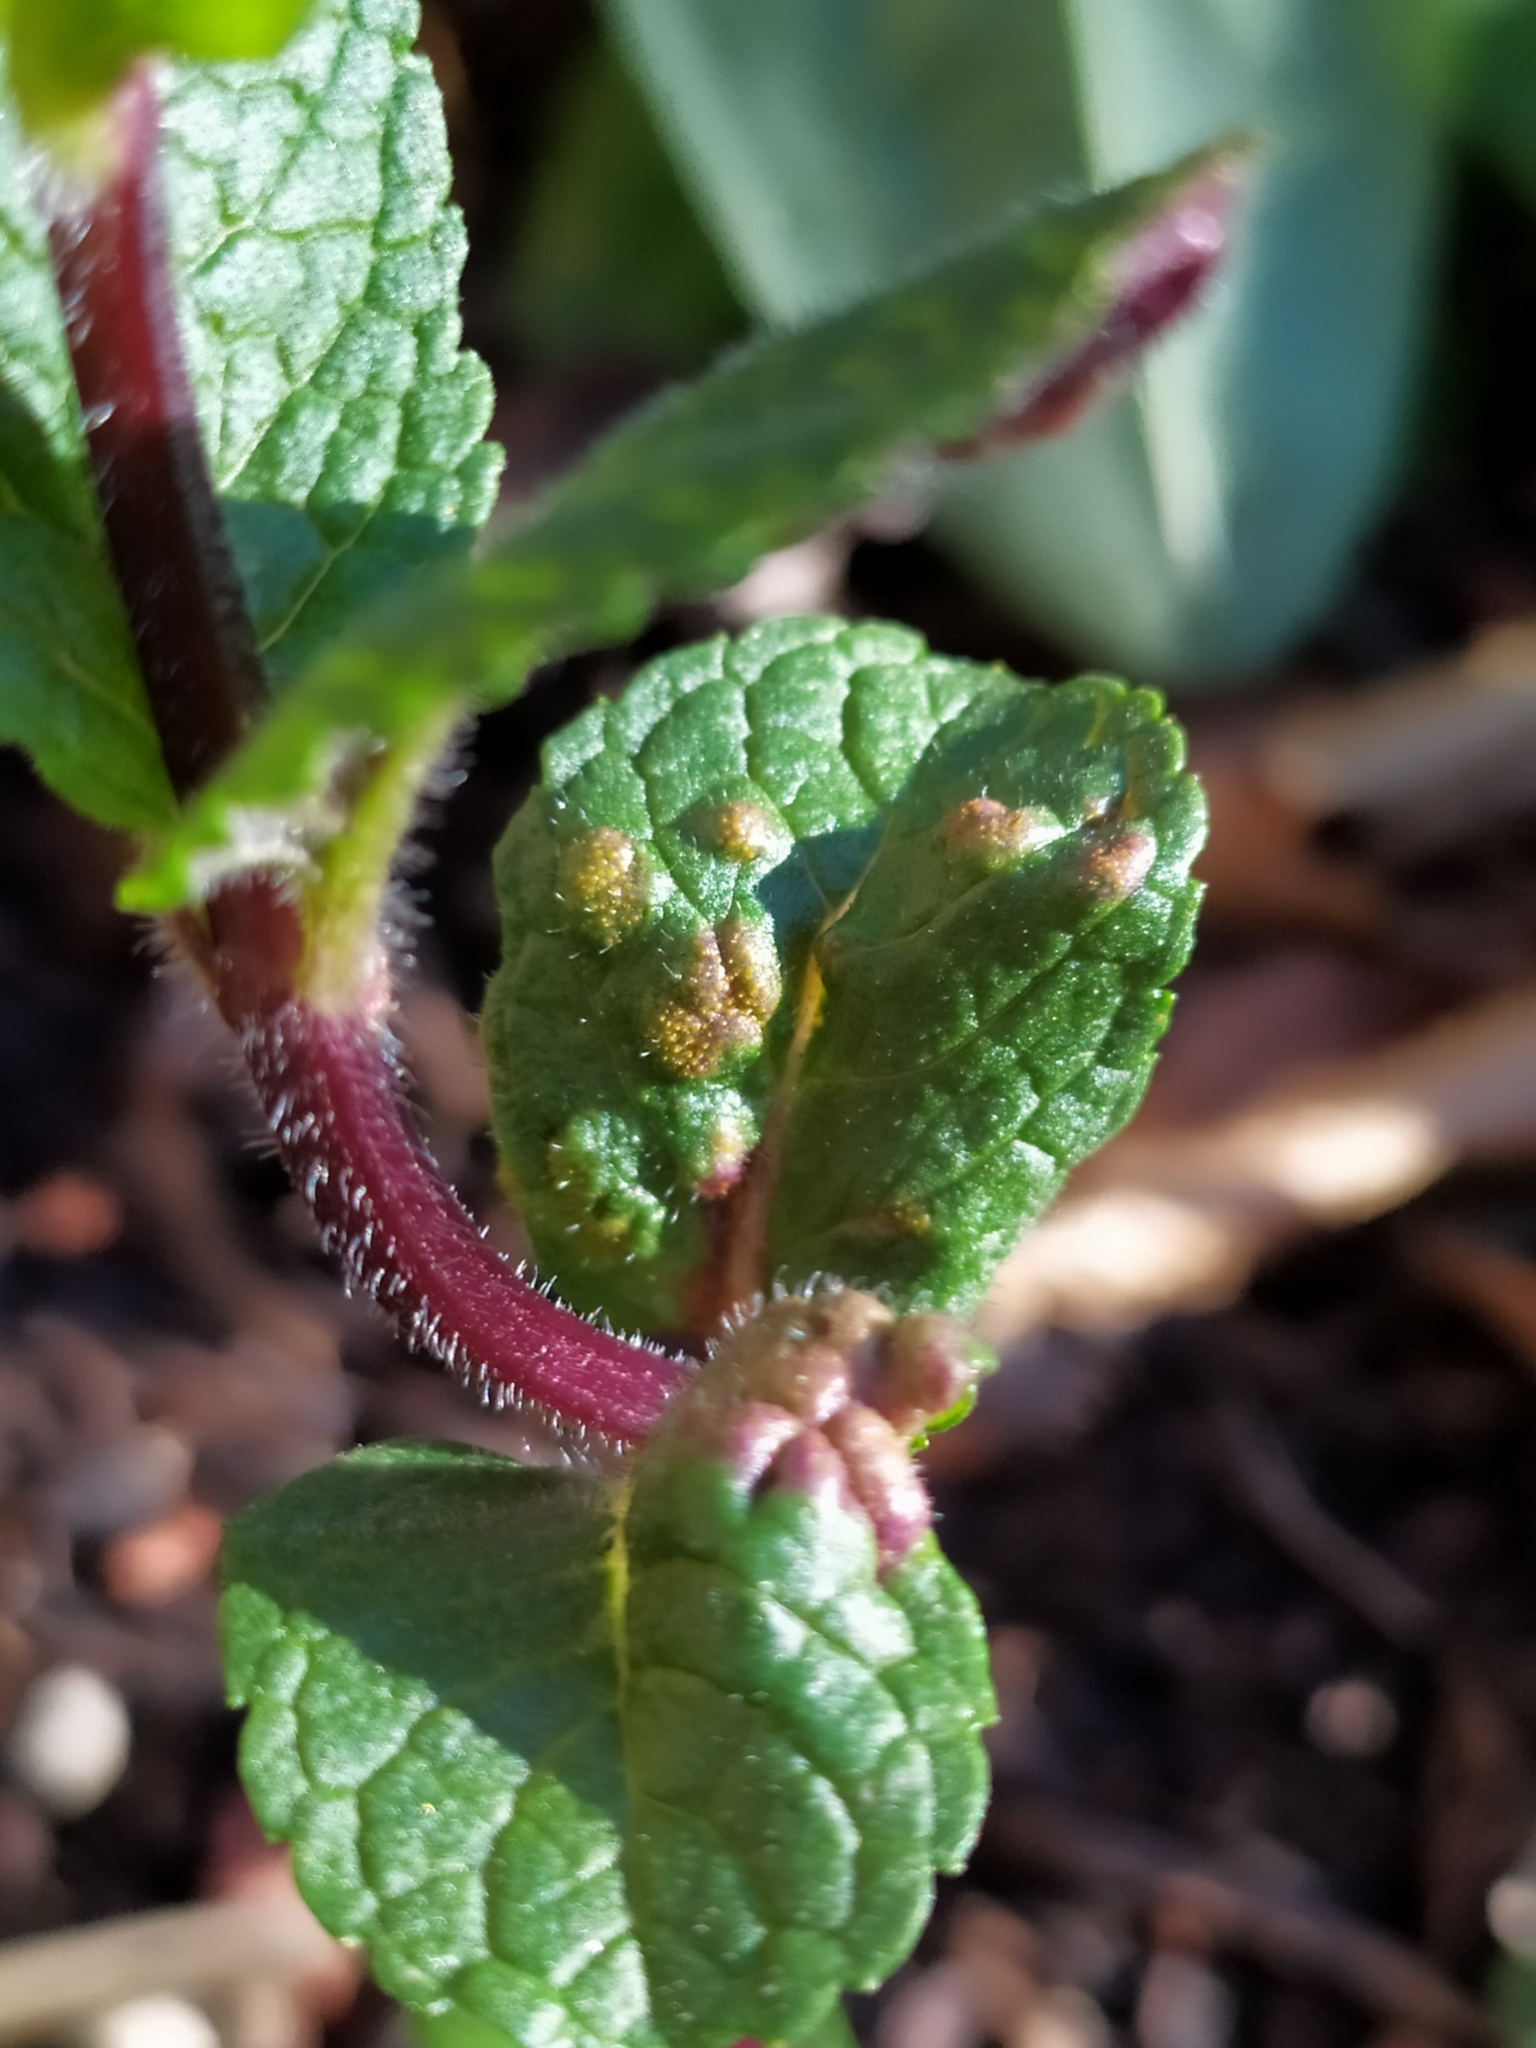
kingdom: Fungi
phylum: Basidiomycota
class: Pucciniomycetes
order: Pucciniales
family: Pucciniaceae
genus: Puccinia
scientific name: Puccinia menthae
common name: Mint rust
